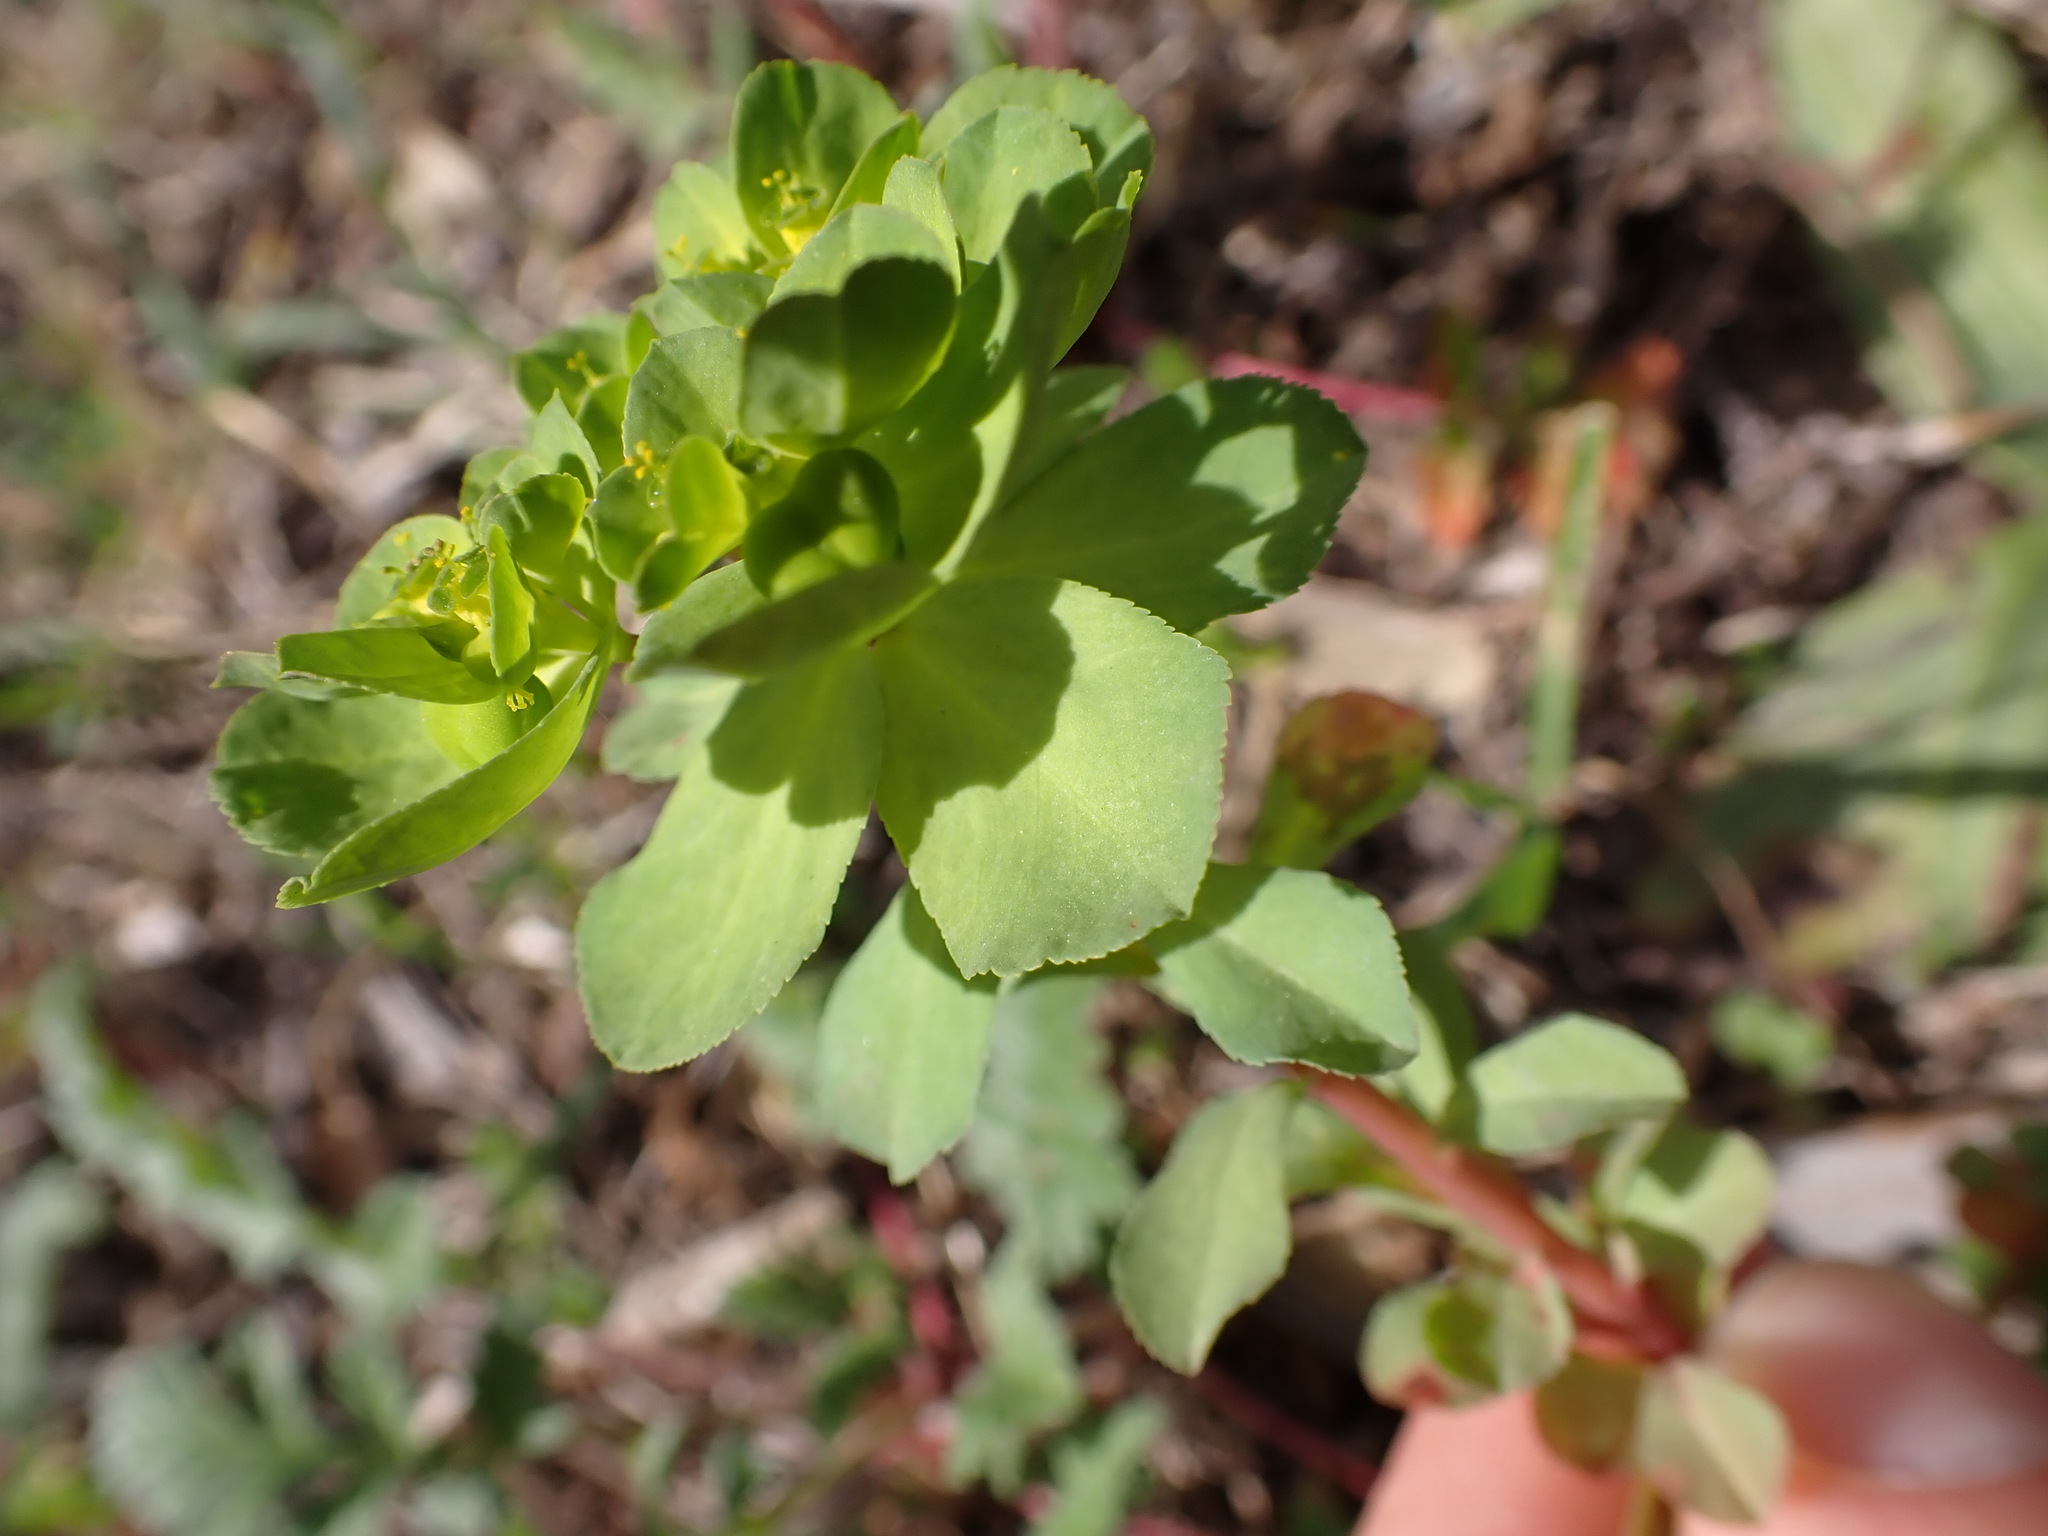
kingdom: Plantae
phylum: Tracheophyta
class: Magnoliopsida
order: Malpighiales
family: Euphorbiaceae
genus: Euphorbia
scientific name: Euphorbia helioscopia
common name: Sun spurge
